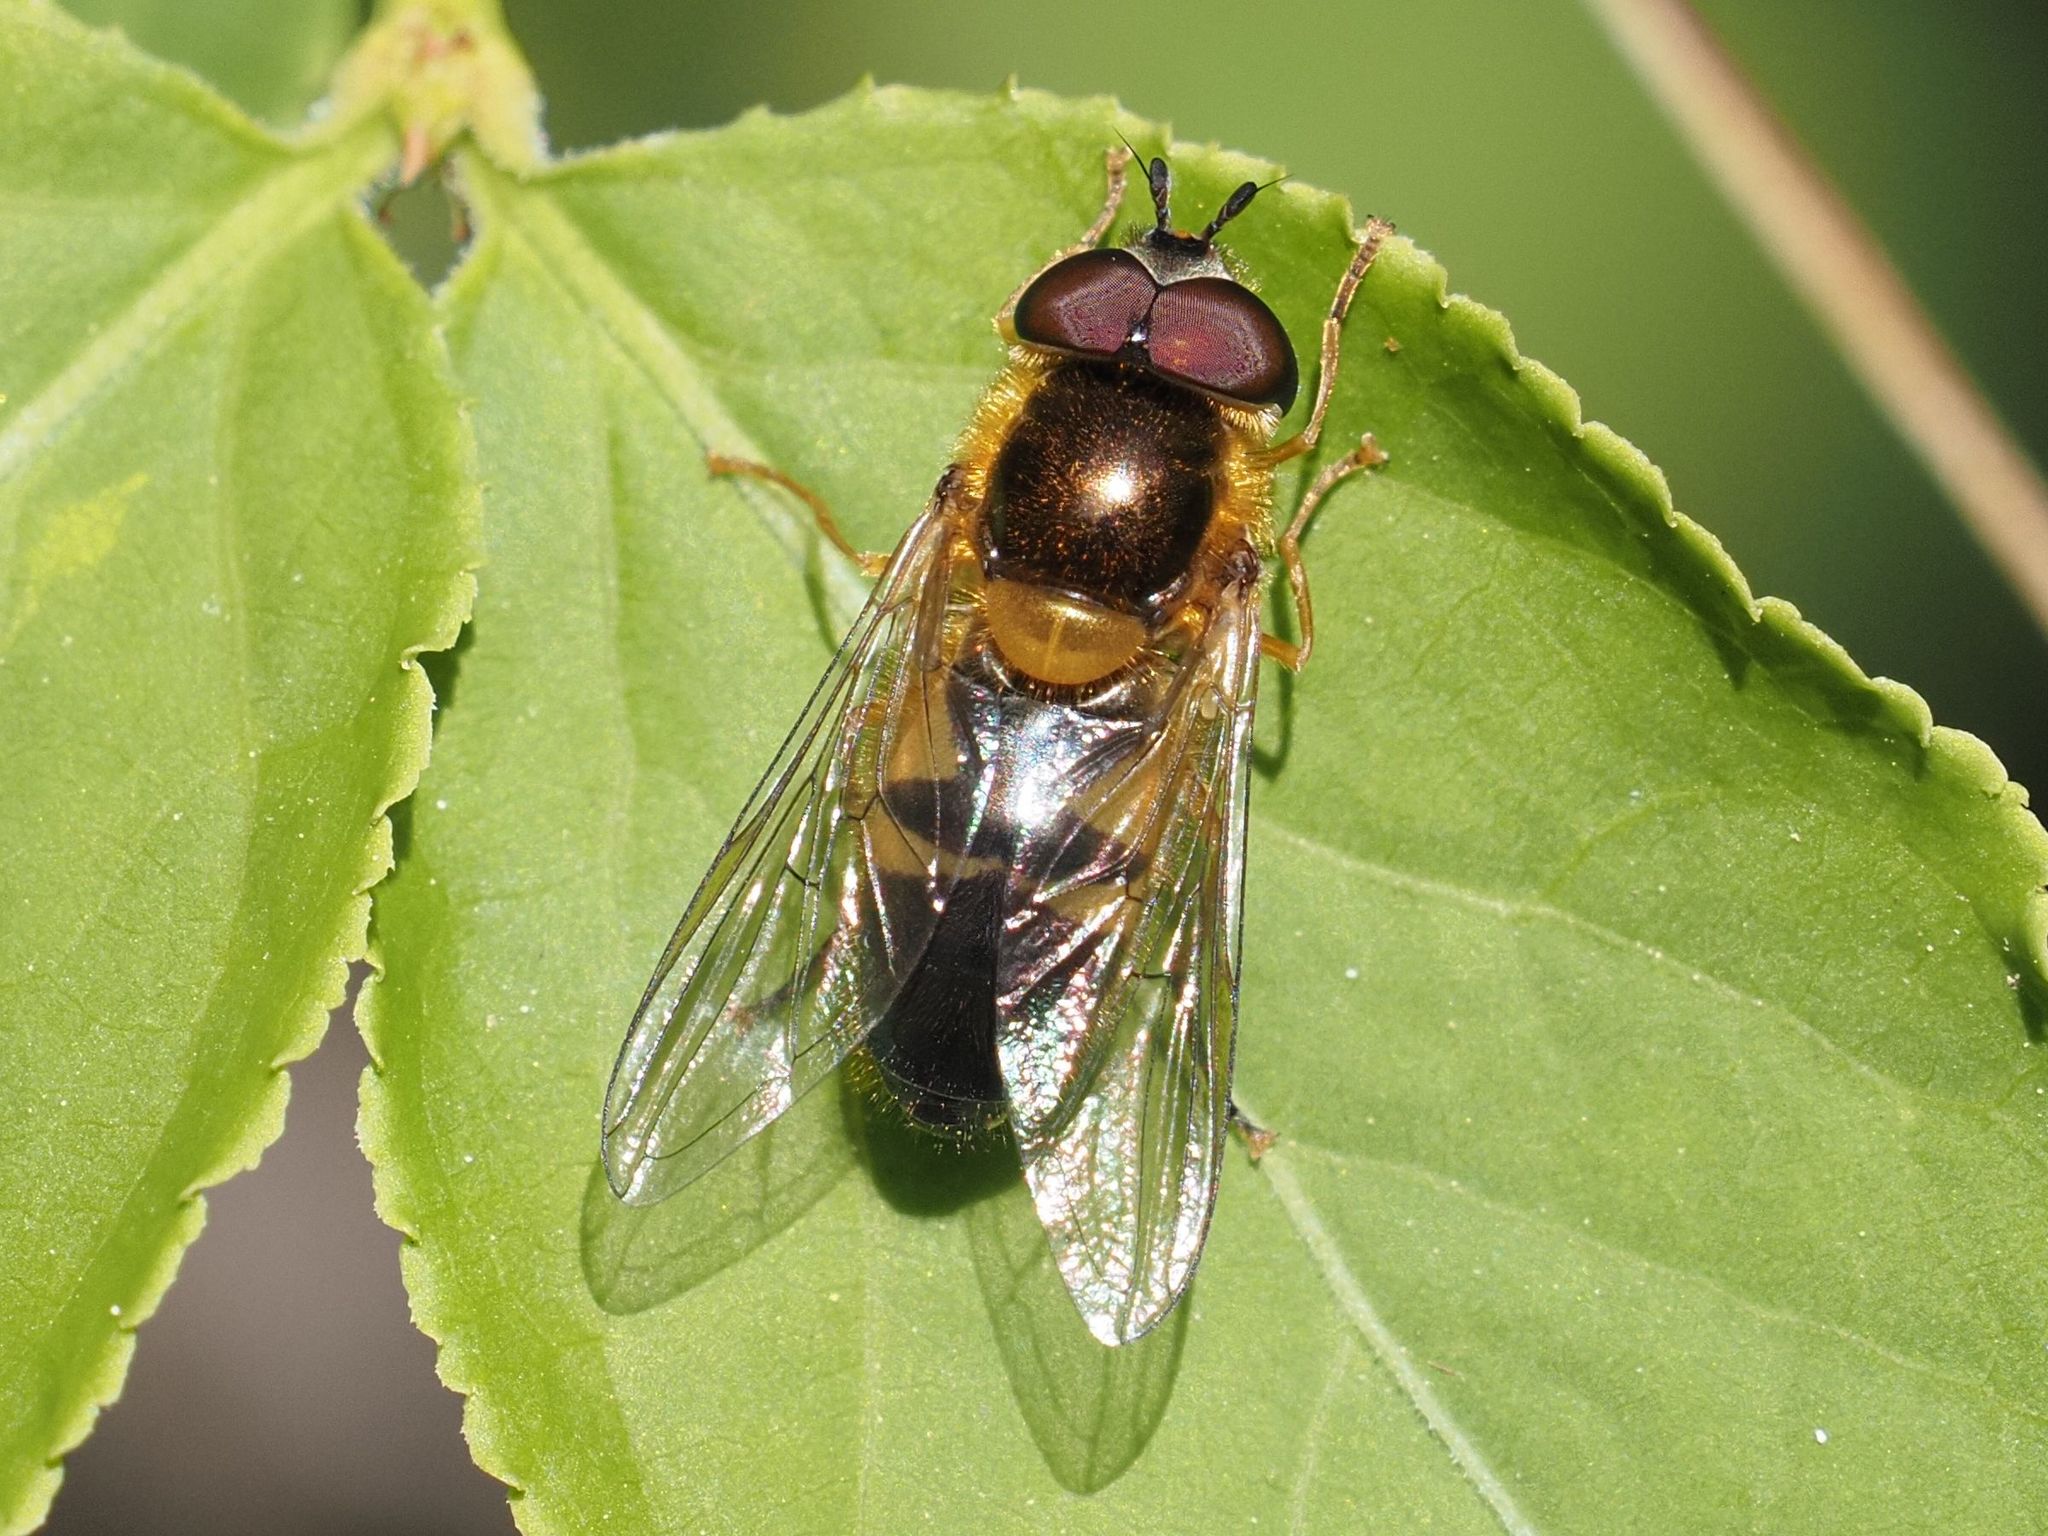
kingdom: Animalia
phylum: Arthropoda
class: Insecta
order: Diptera
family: Syrphidae
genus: Epistrophe
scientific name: Epistrophe eligans
